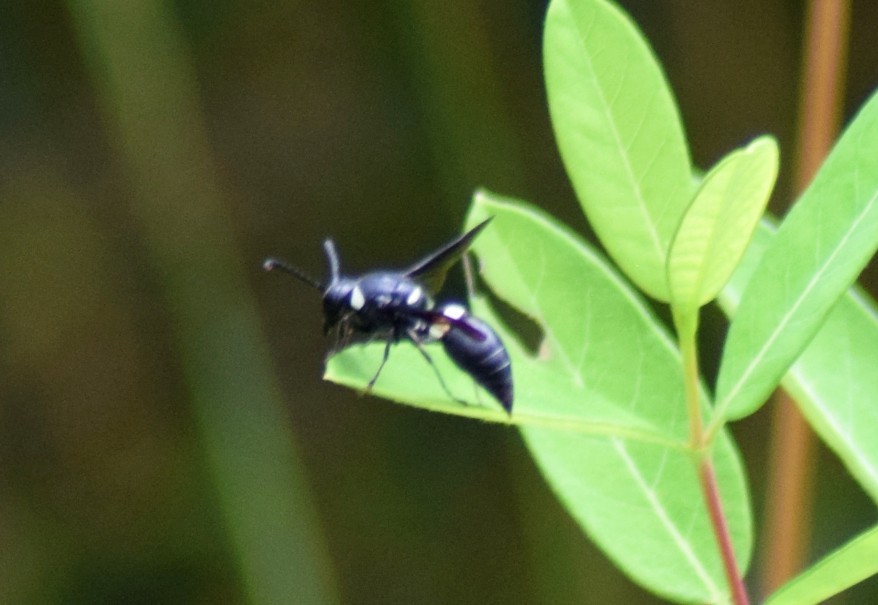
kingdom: Animalia
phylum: Arthropoda
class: Insecta
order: Hymenoptera
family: Eumenidae
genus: Monobia
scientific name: Monobia quadridens
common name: Four-toothed mason wasp
